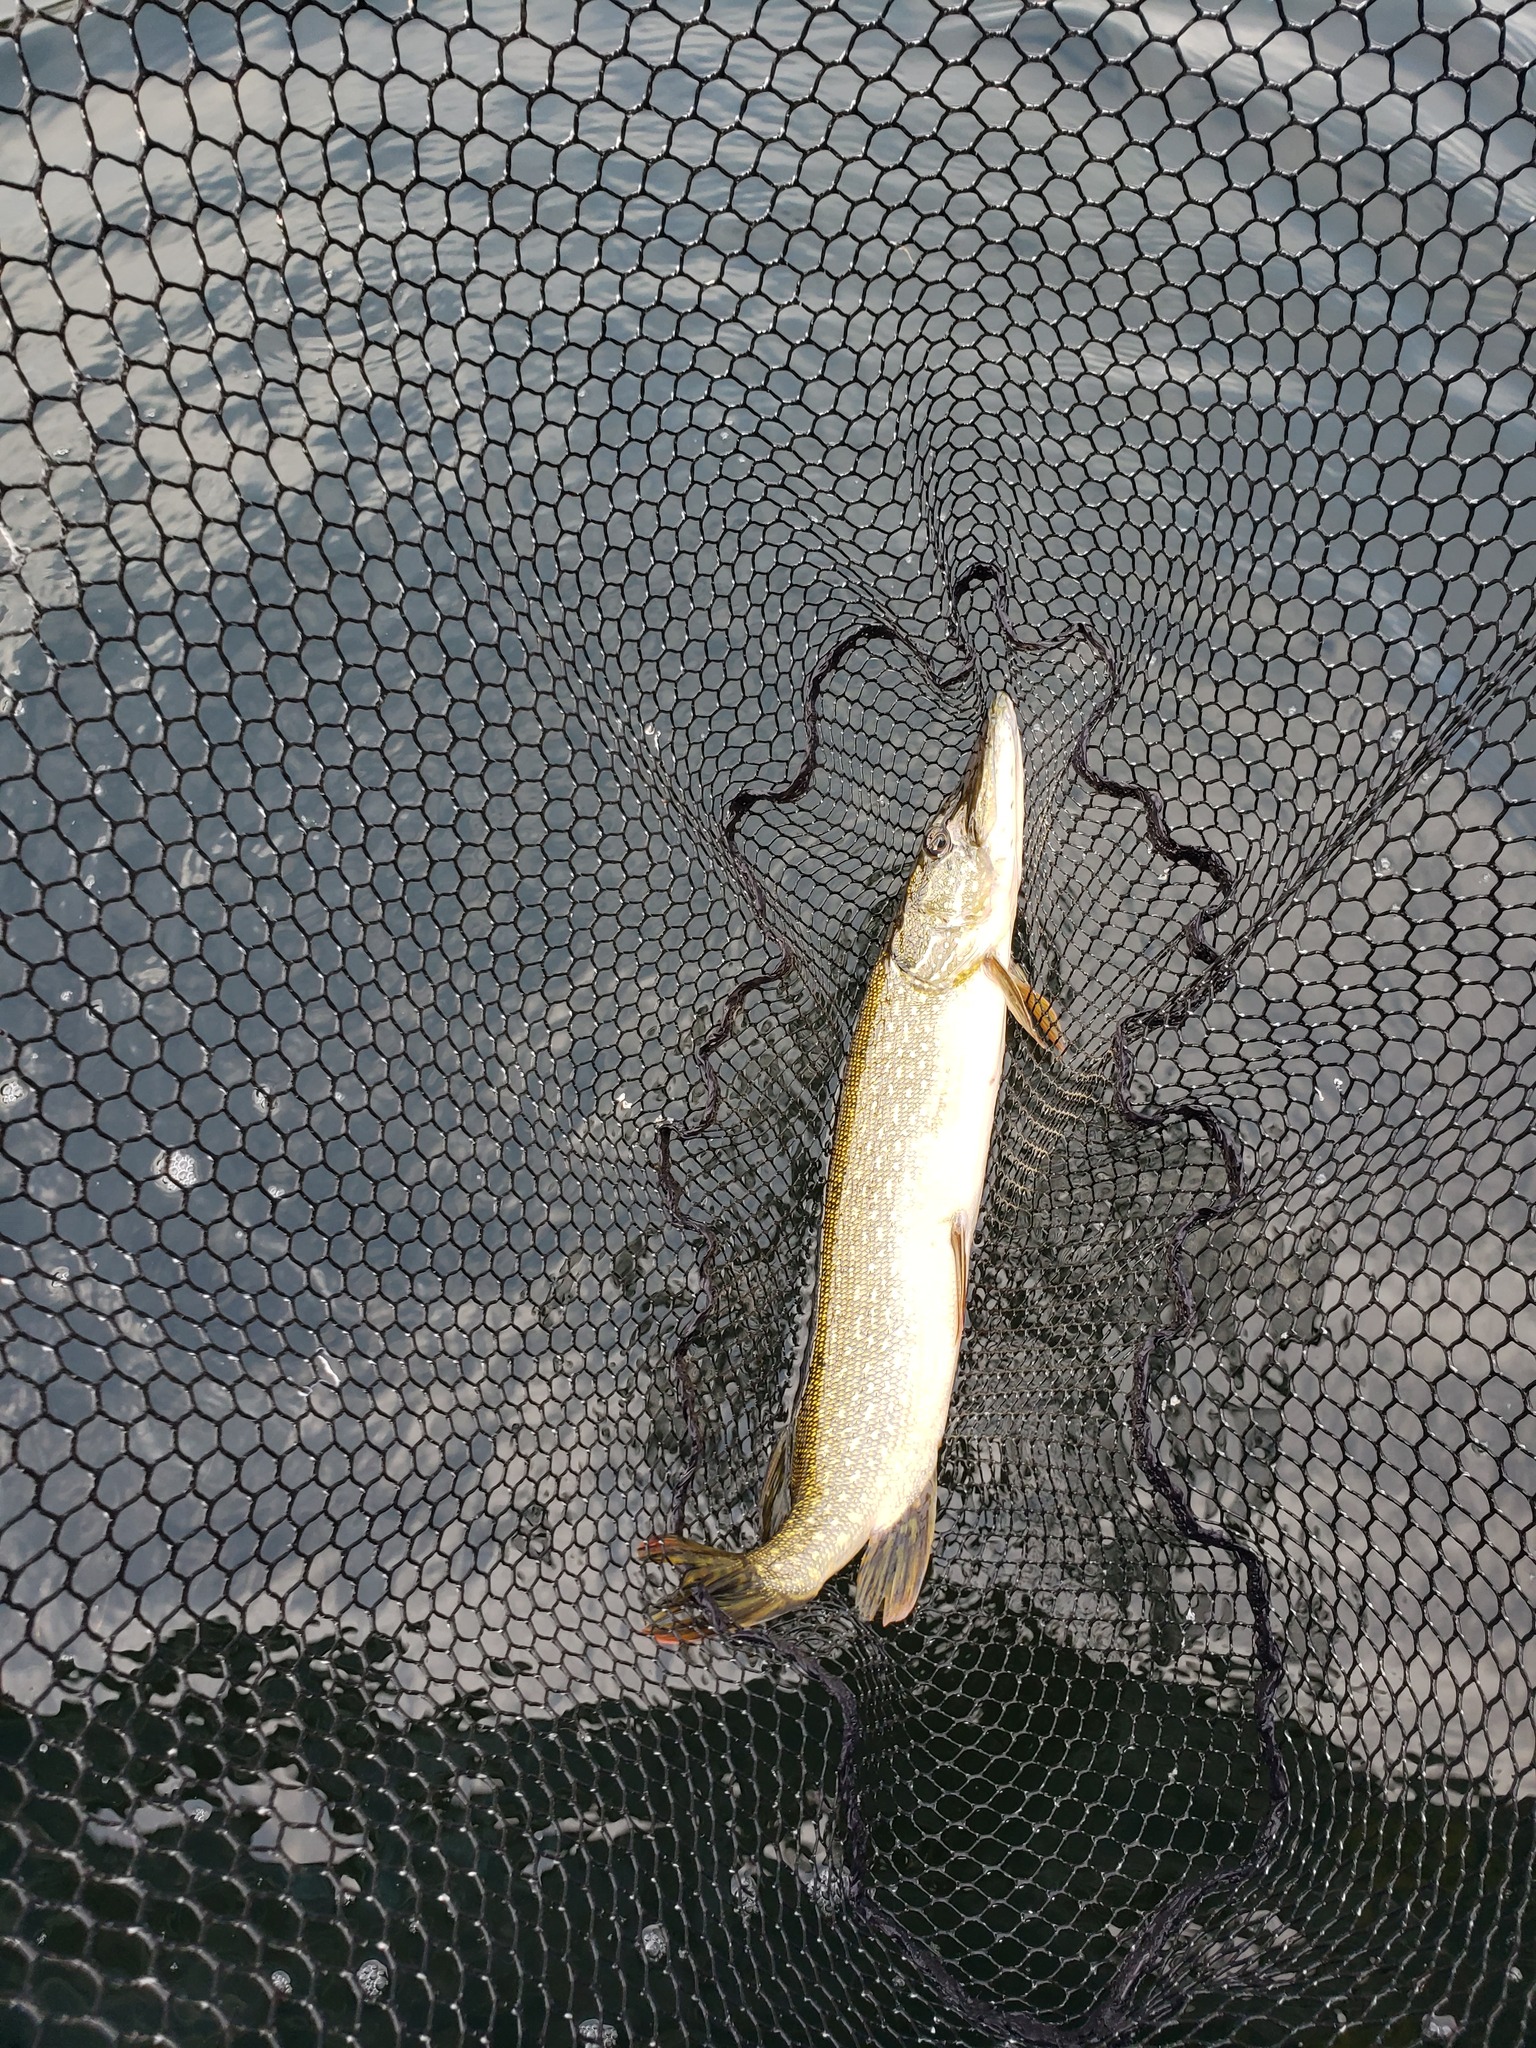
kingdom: Animalia
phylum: Chordata
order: Esociformes
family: Esocidae
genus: Esox
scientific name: Esox lucius
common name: Northern pike
